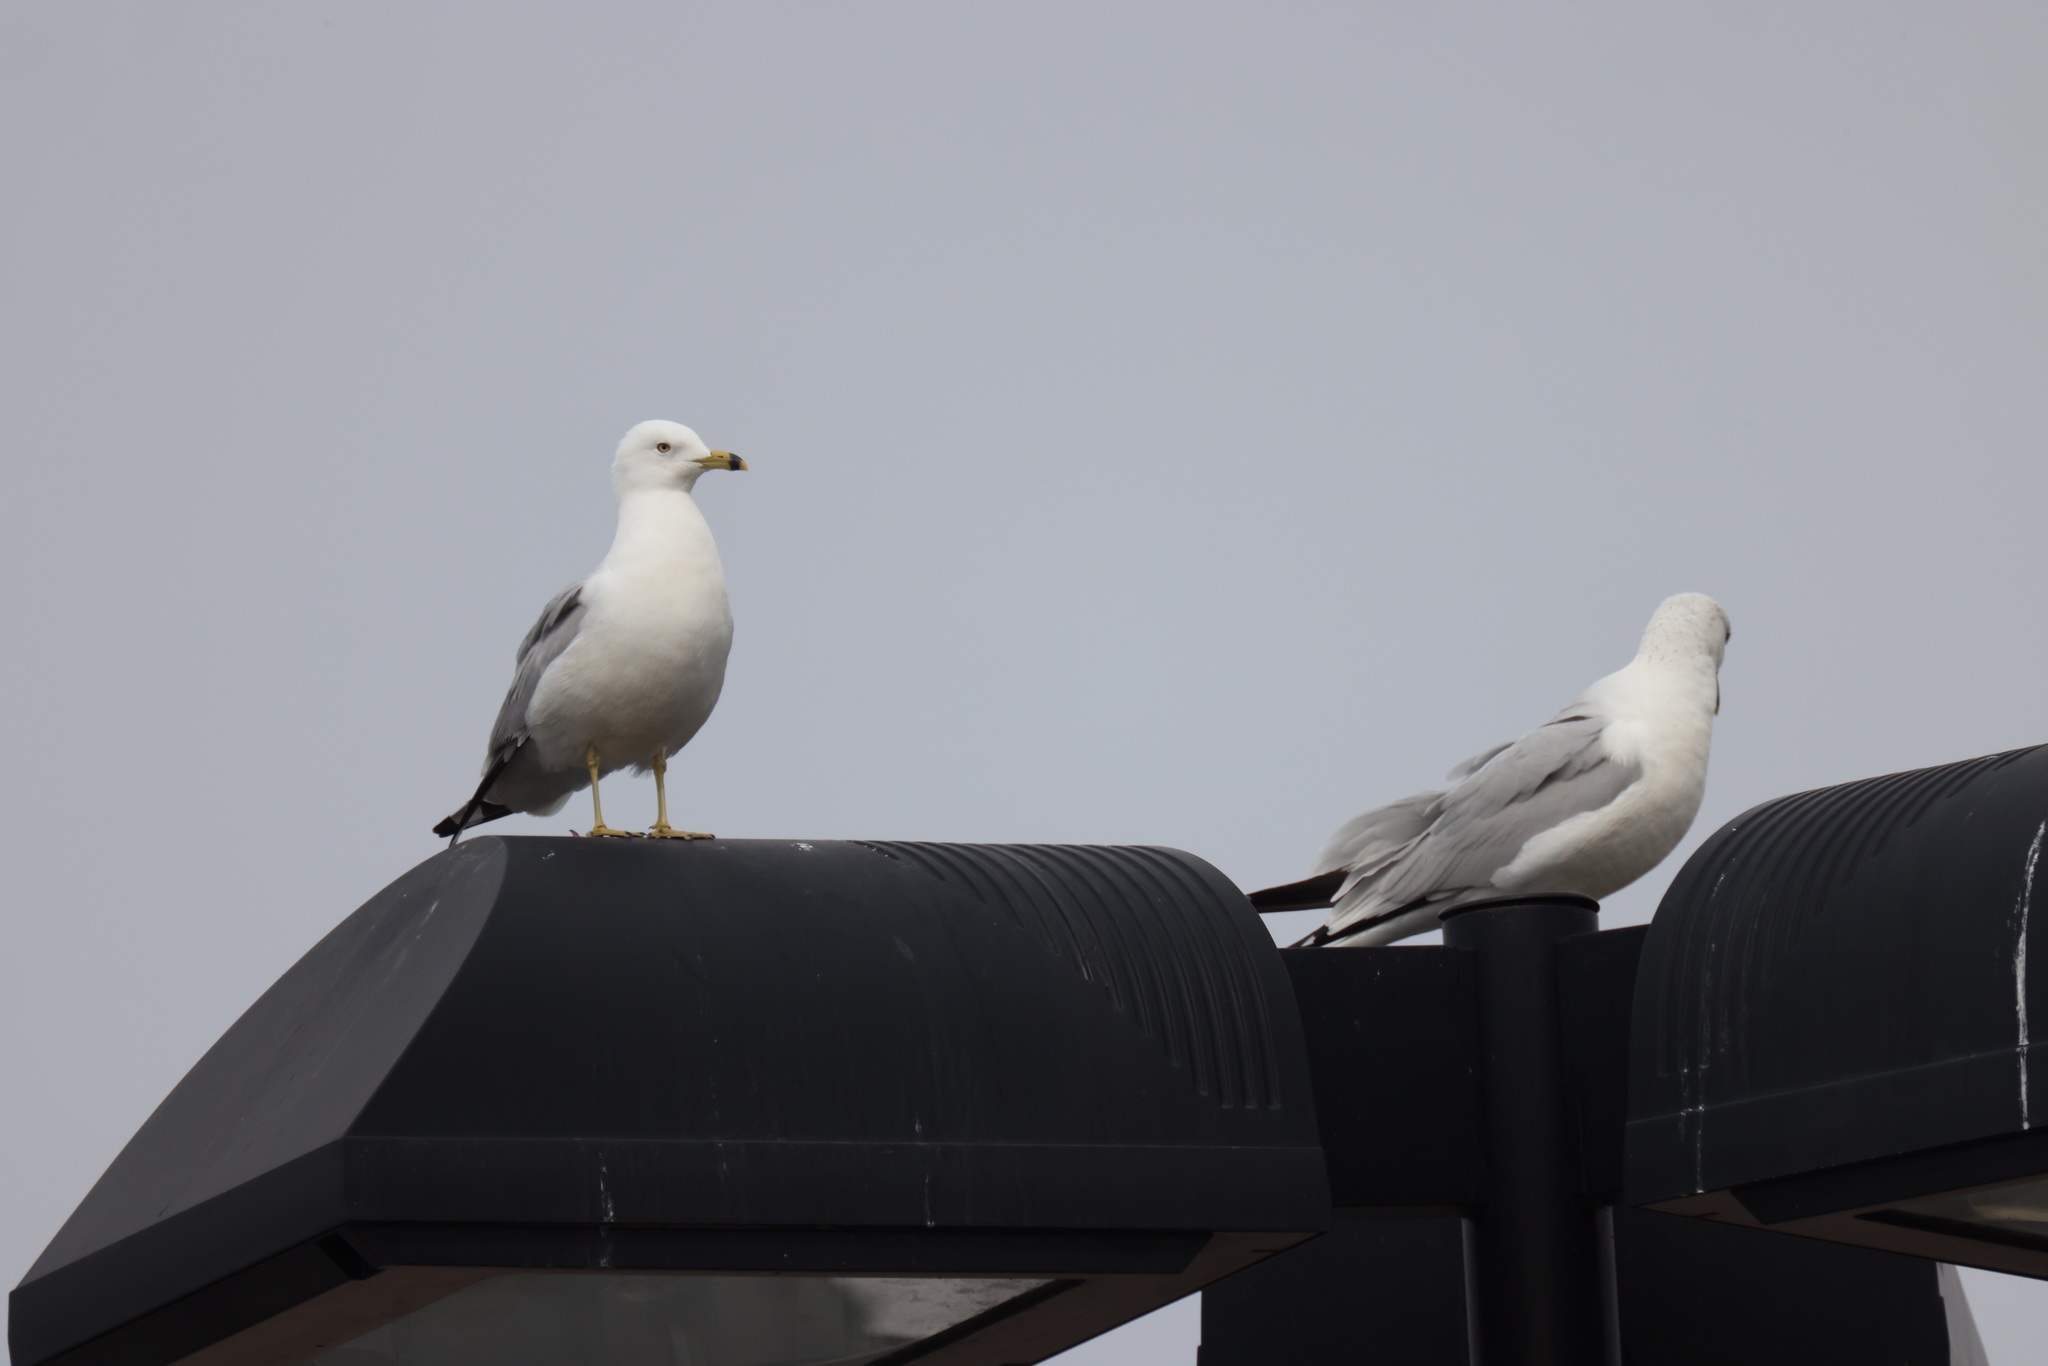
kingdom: Animalia
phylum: Chordata
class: Aves
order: Charadriiformes
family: Laridae
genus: Larus
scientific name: Larus delawarensis
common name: Ring-billed gull
